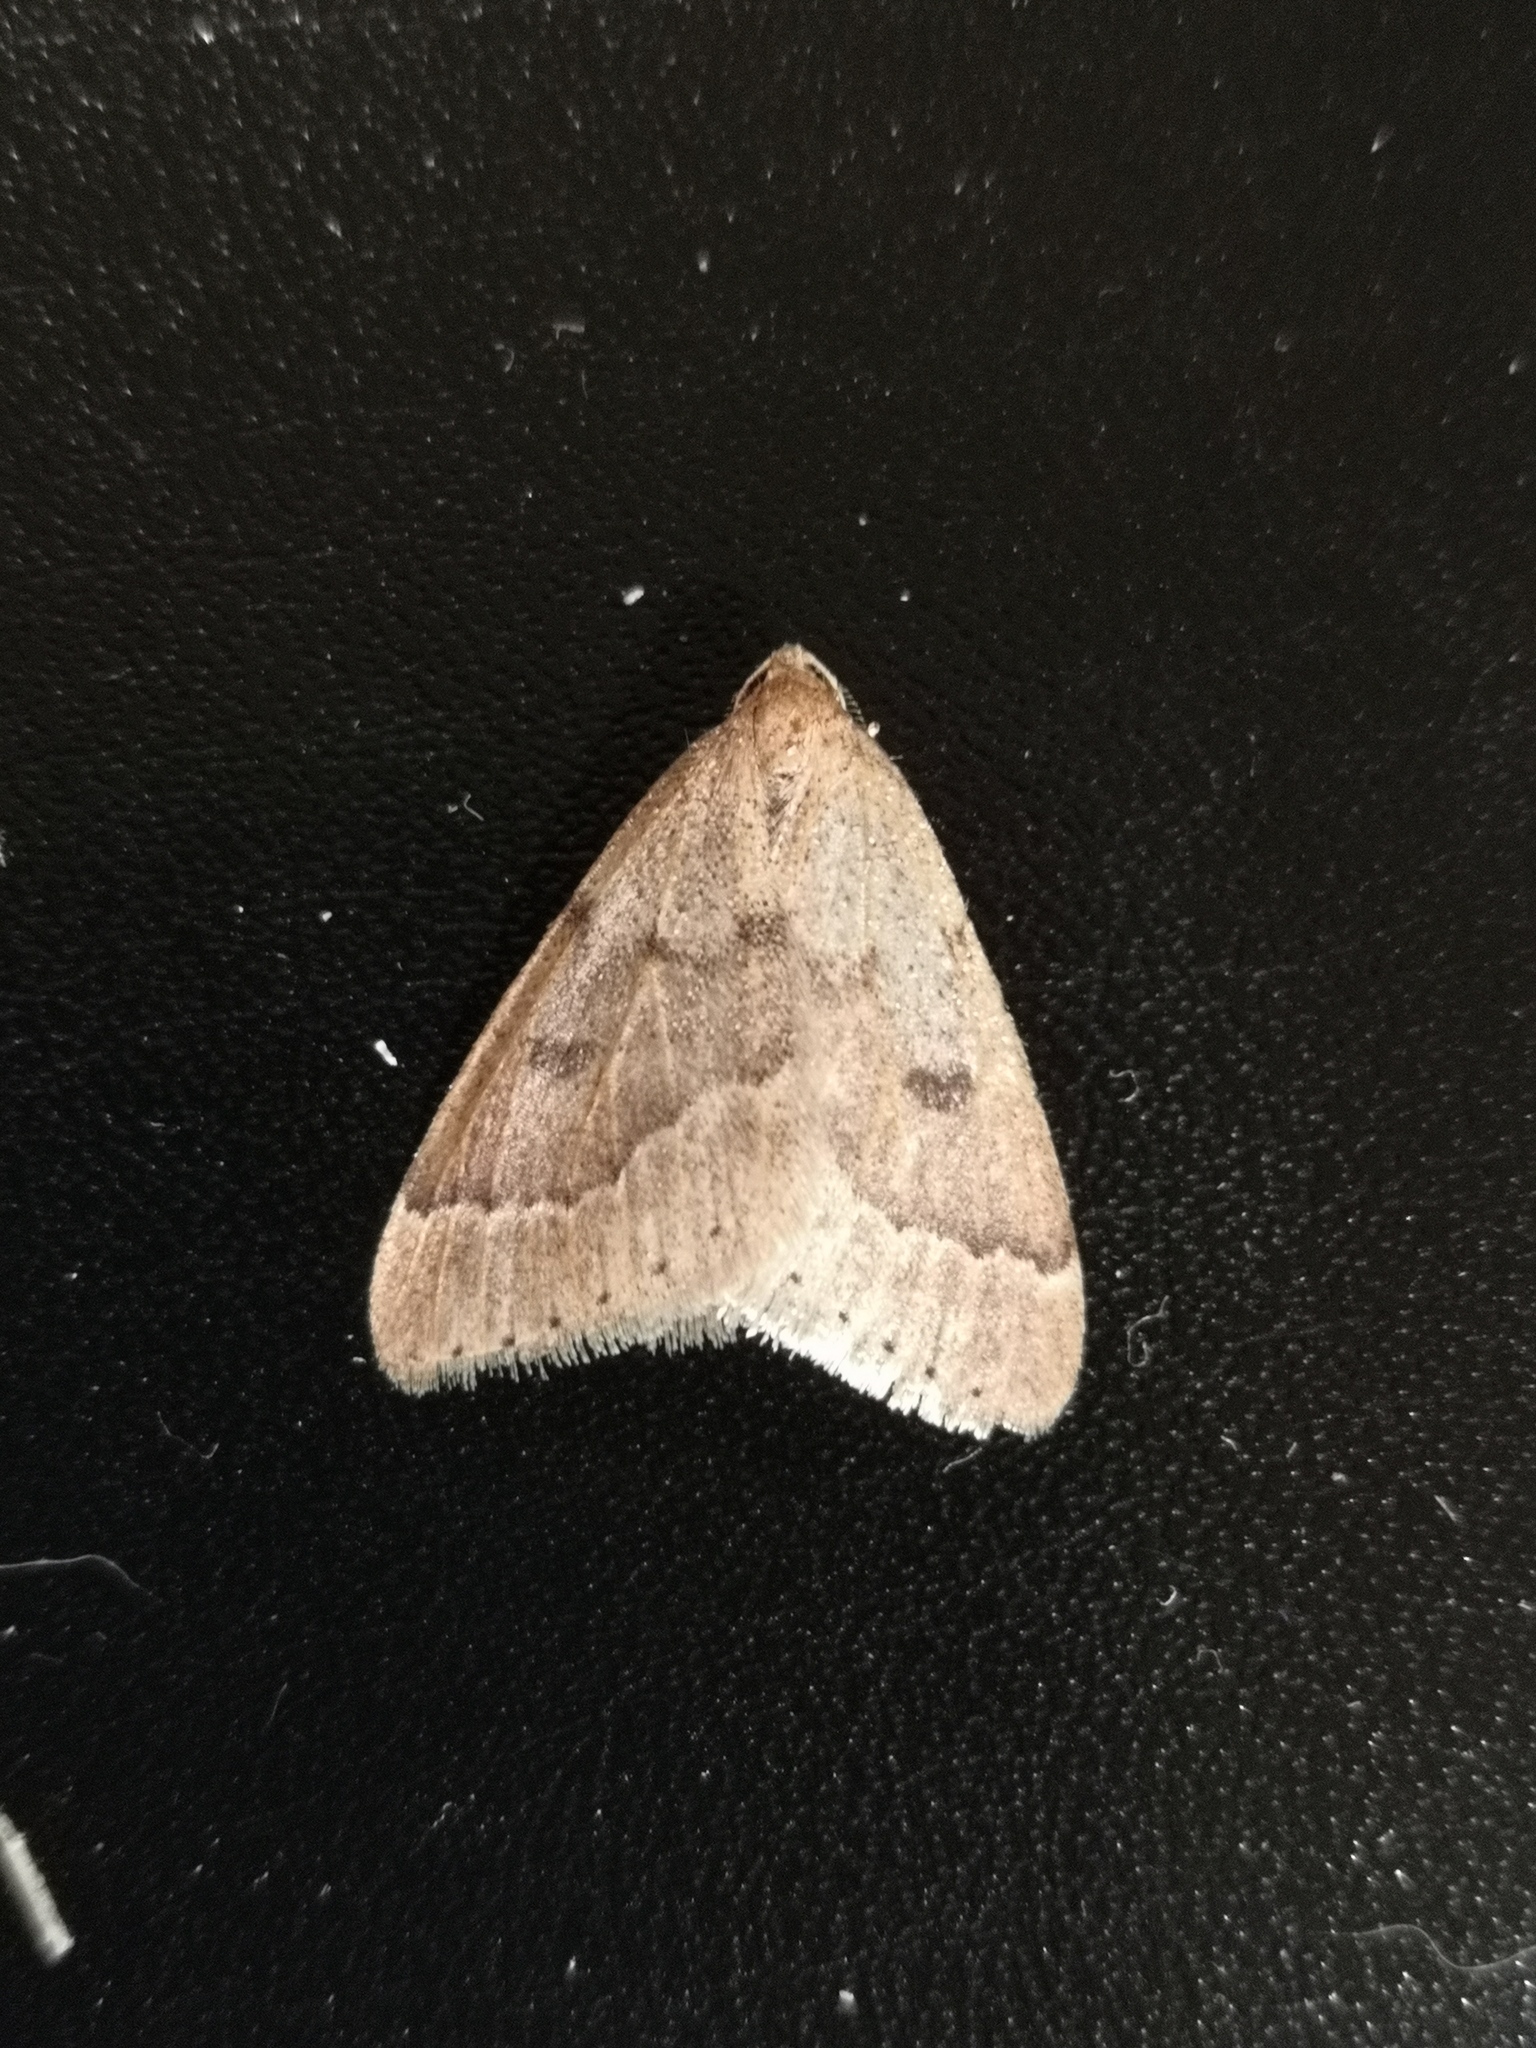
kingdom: Animalia
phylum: Arthropoda
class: Insecta
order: Lepidoptera
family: Geometridae
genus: Theria
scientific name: Theria rupicapraria
